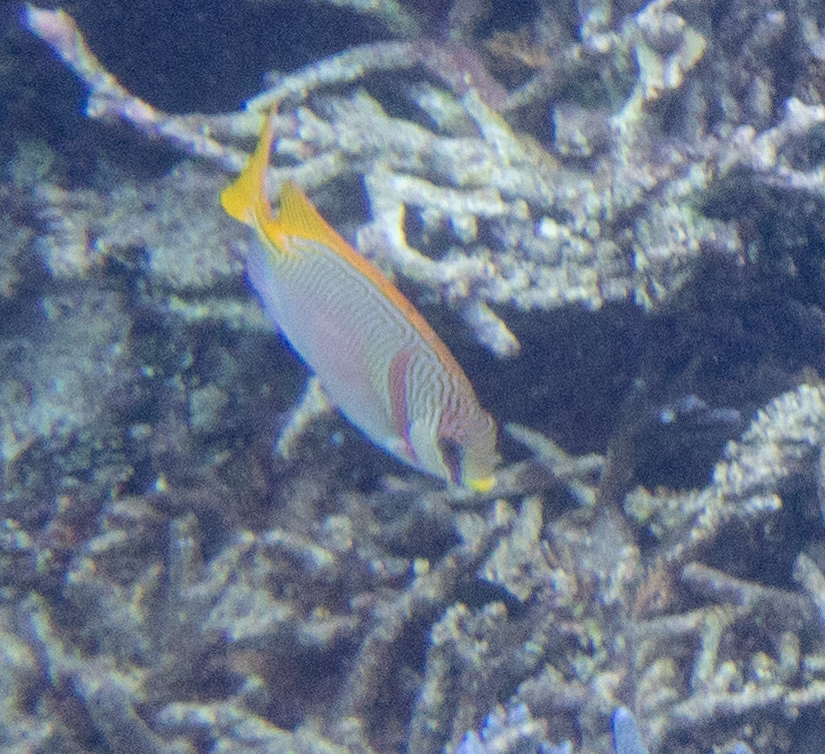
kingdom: Animalia
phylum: Chordata
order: Perciformes
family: Siganidae
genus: Siganus
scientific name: Siganus doliatus
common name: Barred spinefoot
